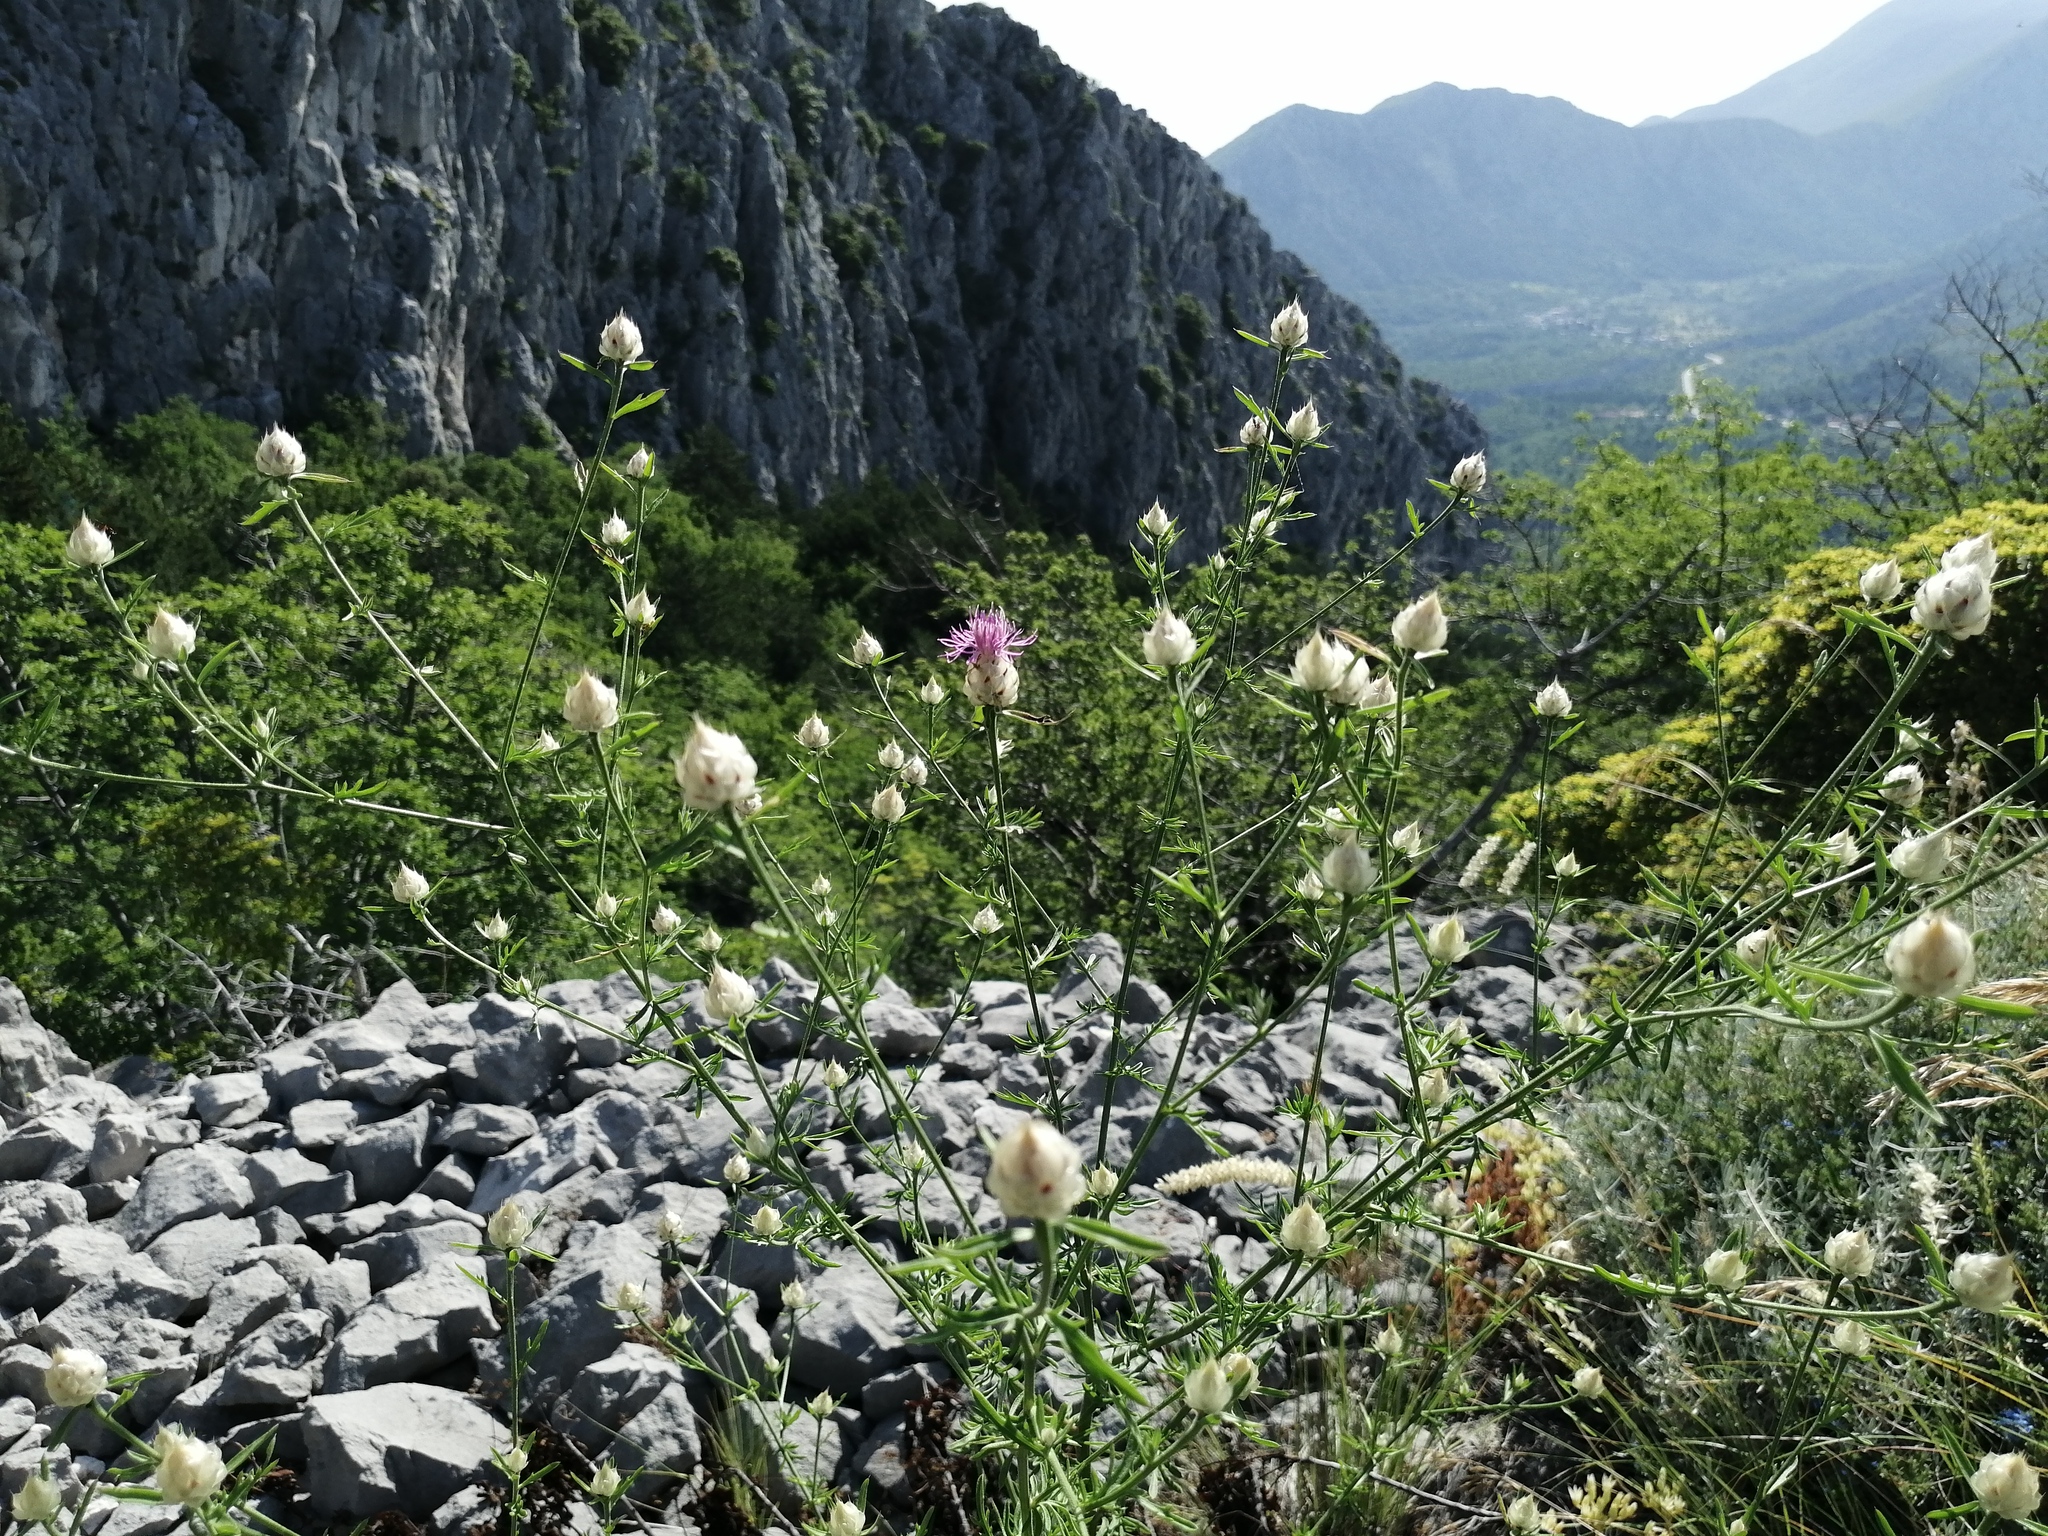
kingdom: Plantae
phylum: Tracheophyta
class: Magnoliopsida
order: Asterales
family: Asteraceae
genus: Centaurea
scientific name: Centaurea deusta
